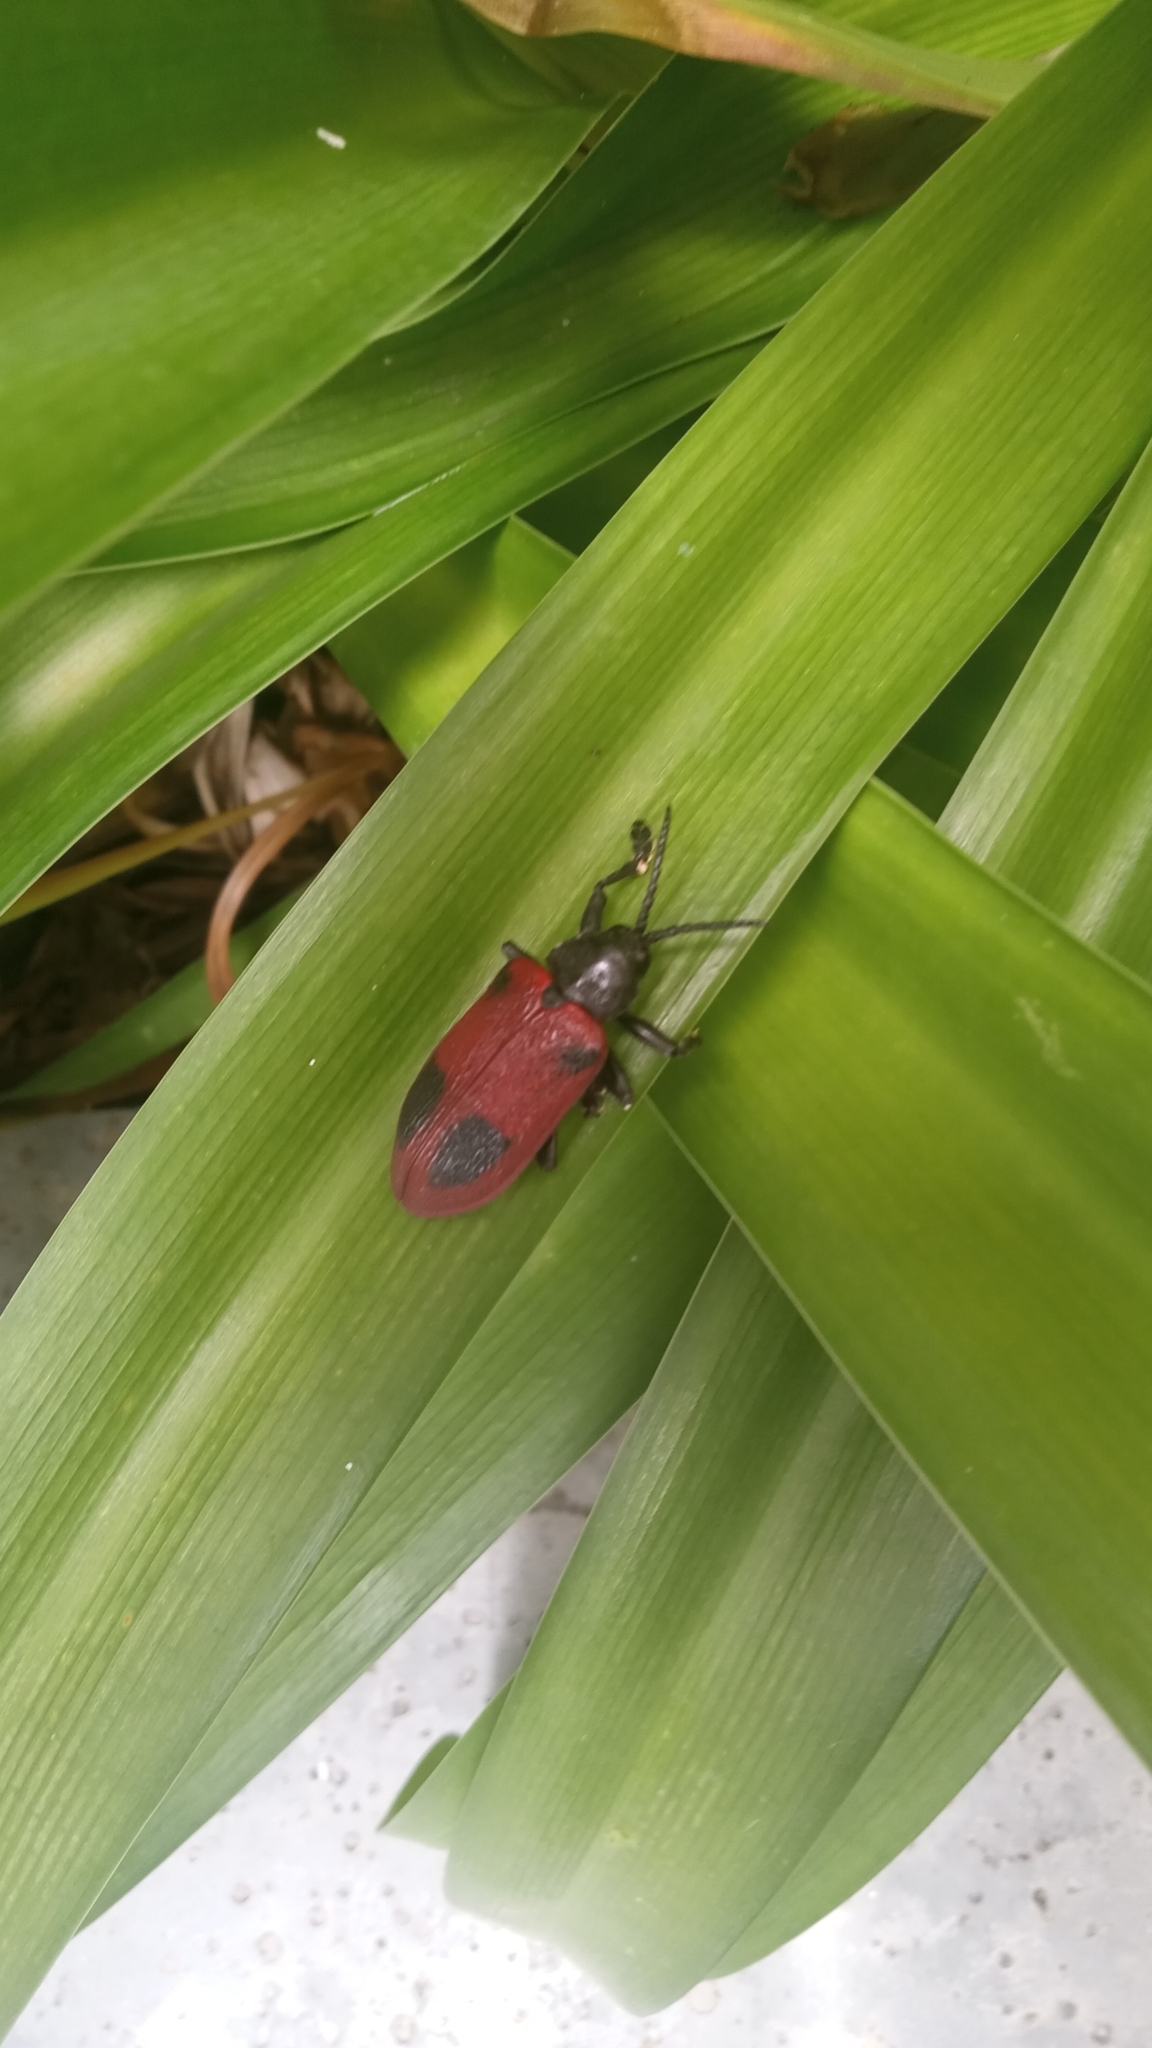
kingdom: Animalia
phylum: Arthropoda
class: Insecta
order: Coleoptera
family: Chrysomelidae
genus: Coraliomela
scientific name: Coraliomela quadrimaculata
